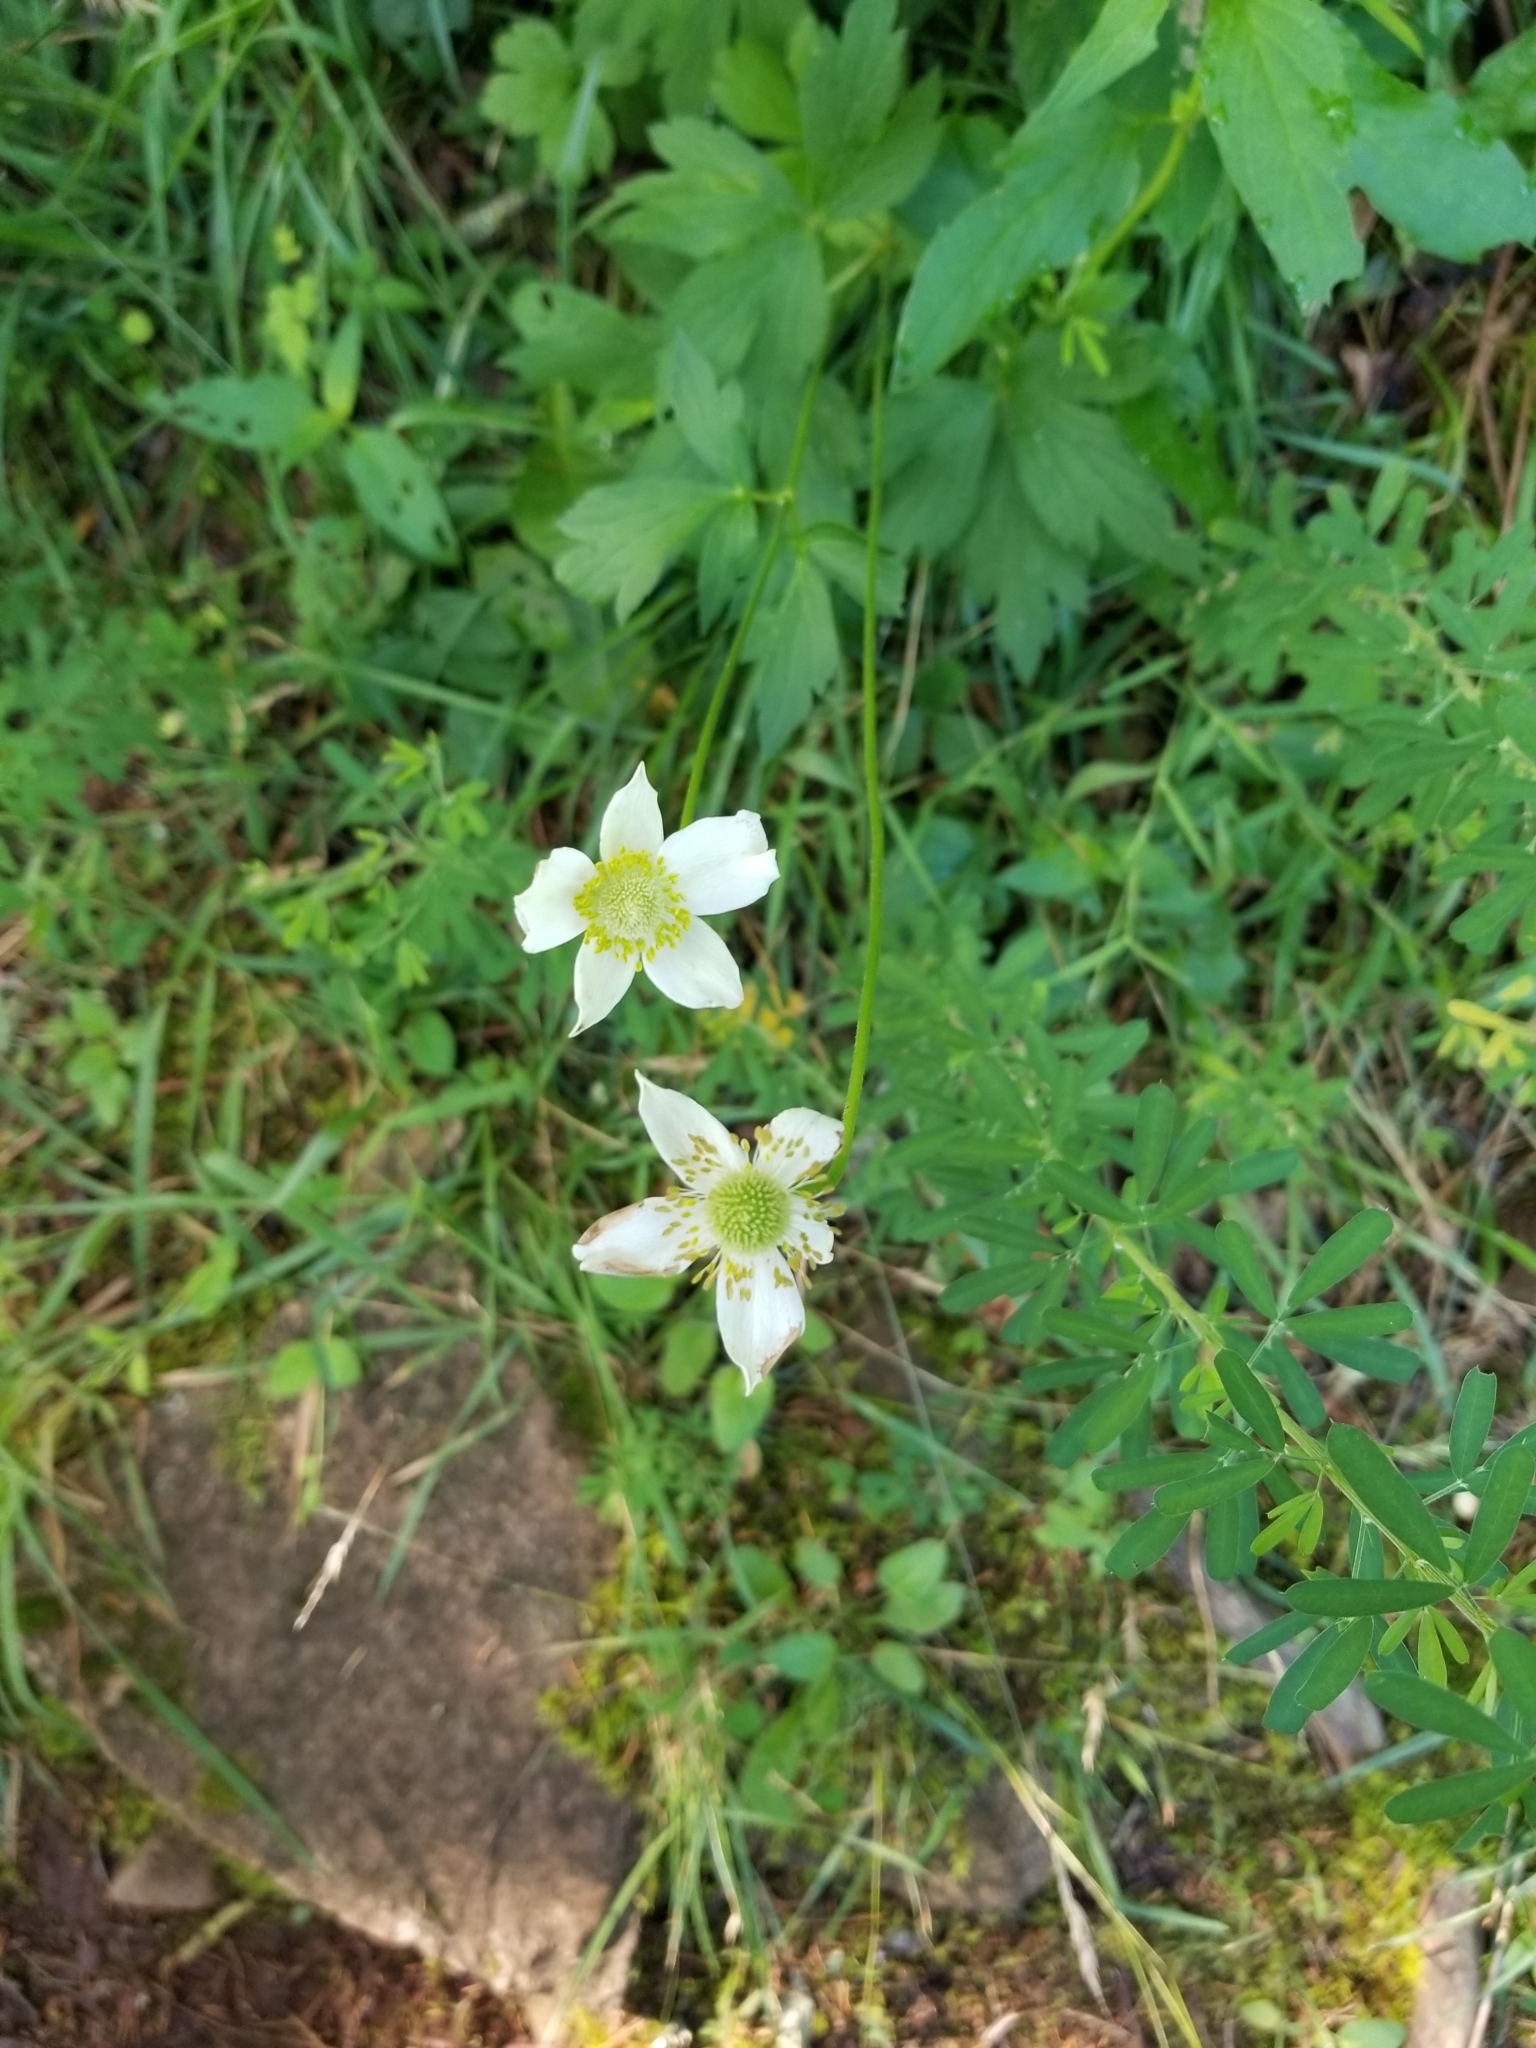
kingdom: Plantae
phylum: Tracheophyta
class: Magnoliopsida
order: Ranunculales
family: Ranunculaceae
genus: Anemone
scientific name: Anemone virginiana
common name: Tall anemone
